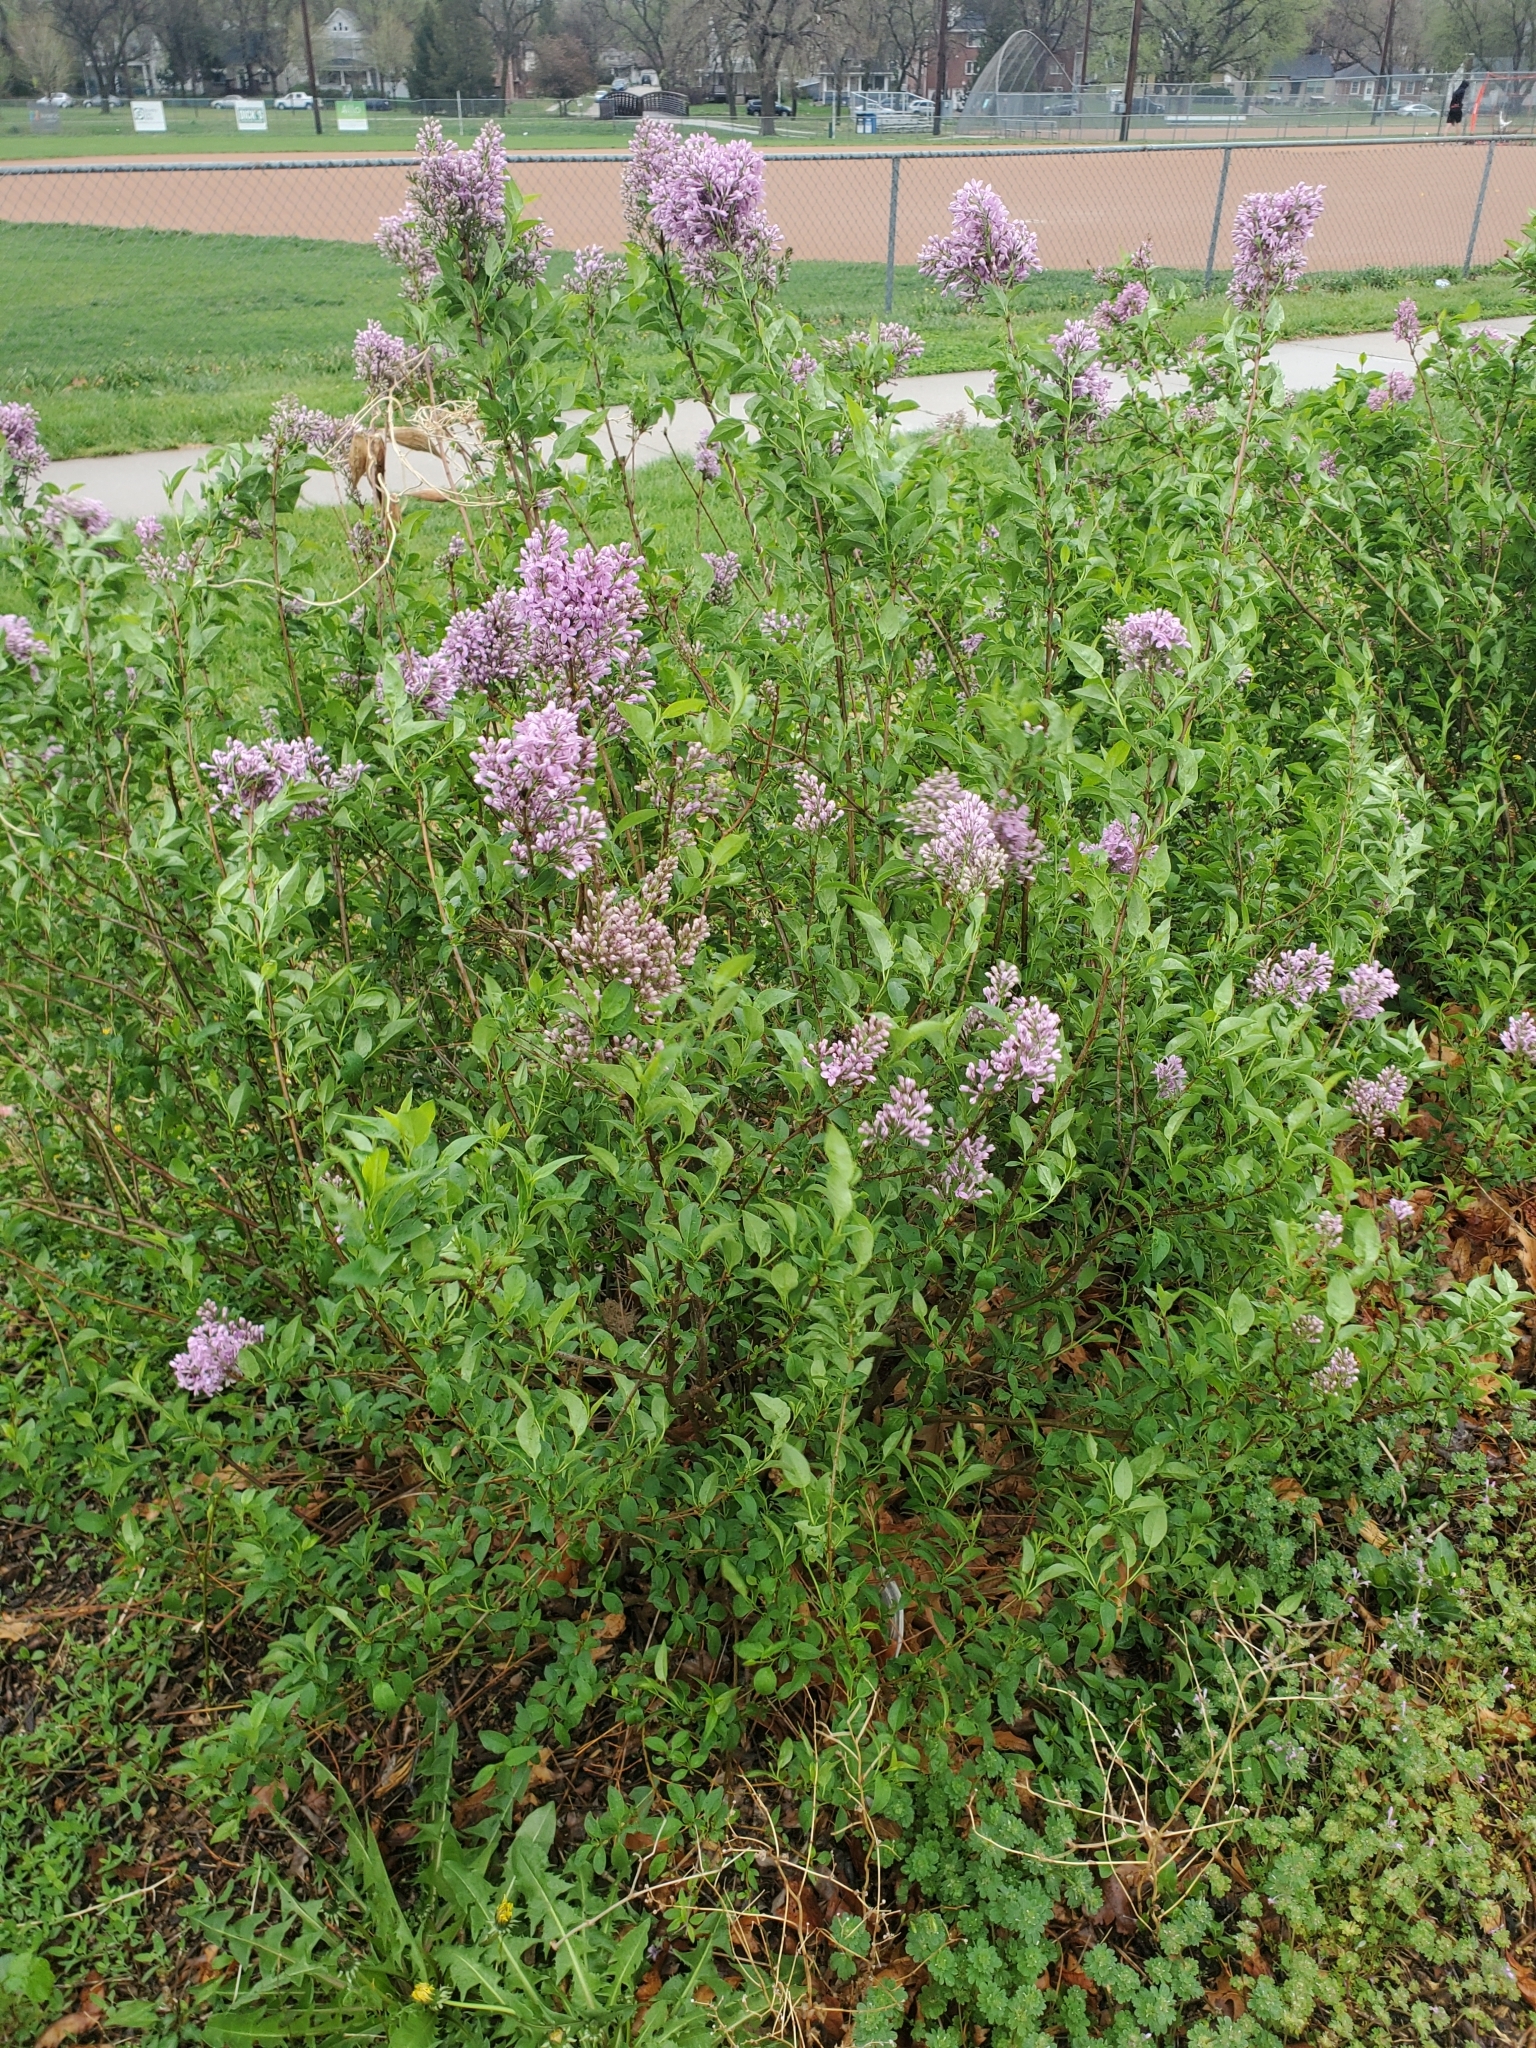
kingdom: Plantae
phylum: Tracheophyta
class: Magnoliopsida
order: Lamiales
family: Oleaceae
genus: Syringa
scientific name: Syringa vulgaris
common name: Common lilac
